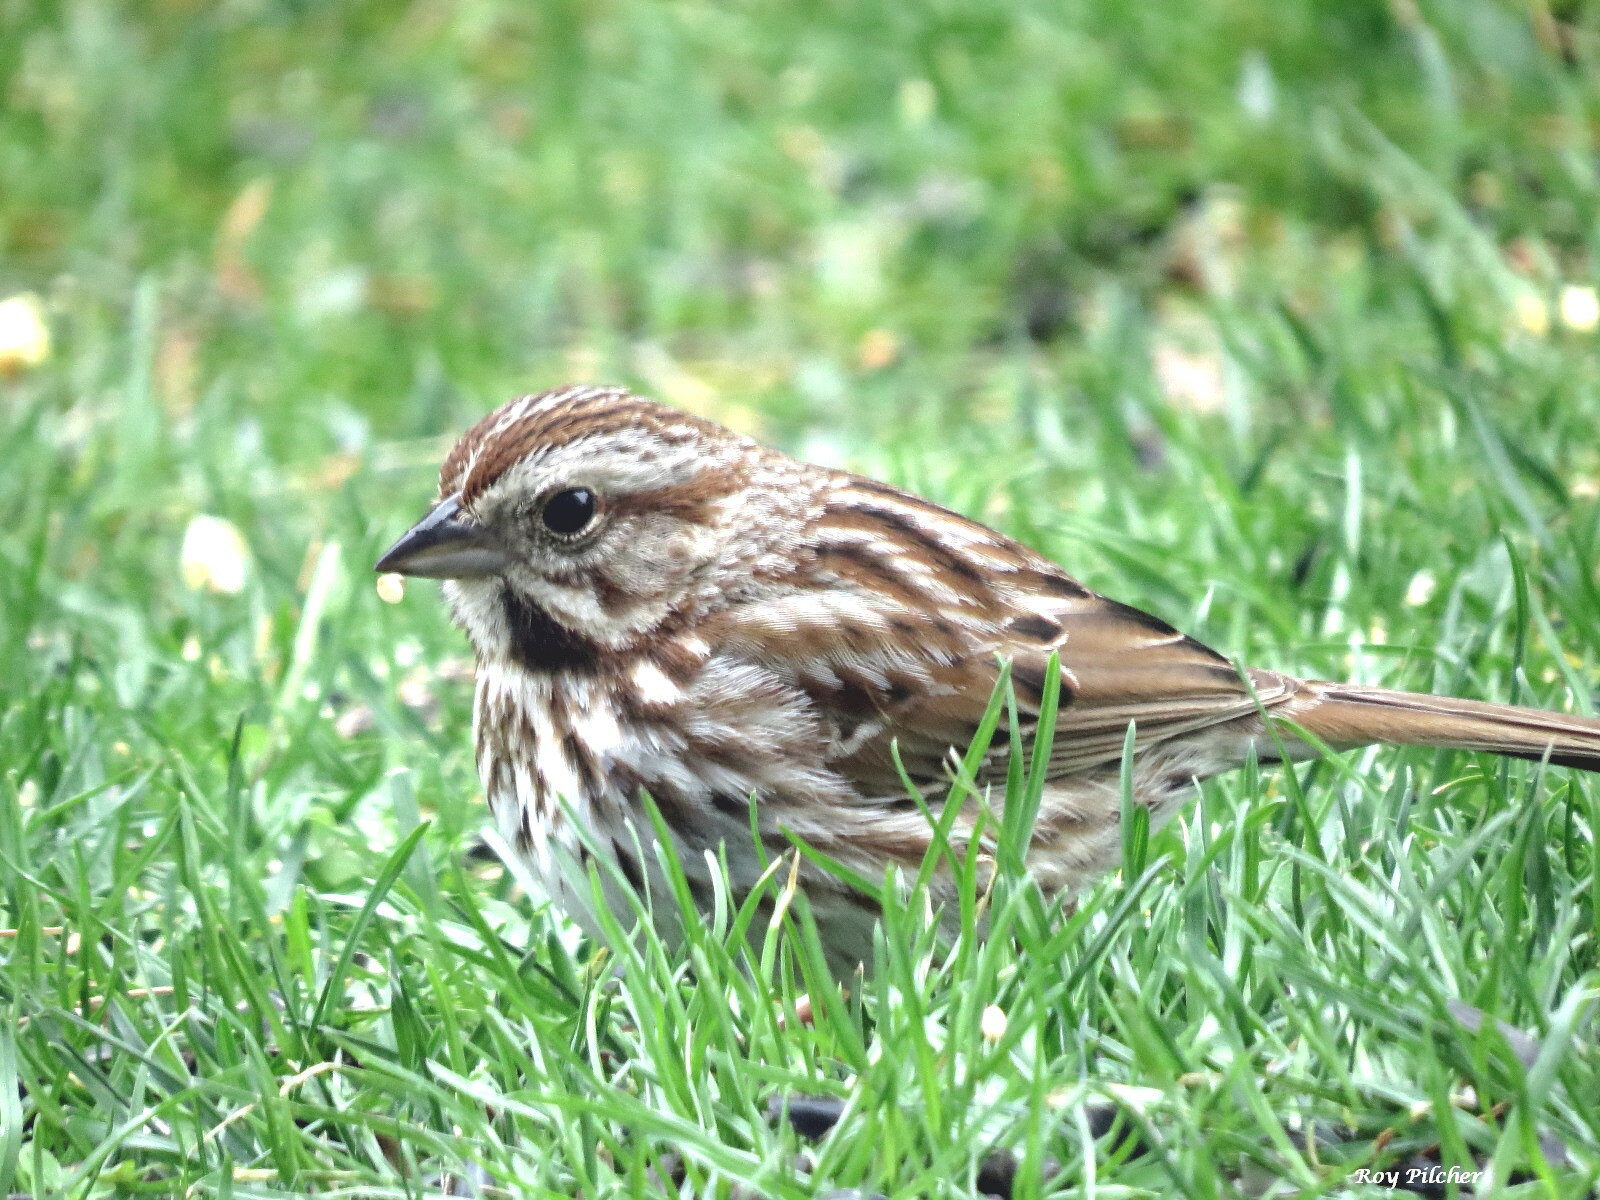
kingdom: Animalia
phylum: Chordata
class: Aves
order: Passeriformes
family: Passerellidae
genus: Melospiza
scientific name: Melospiza melodia
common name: Song sparrow
